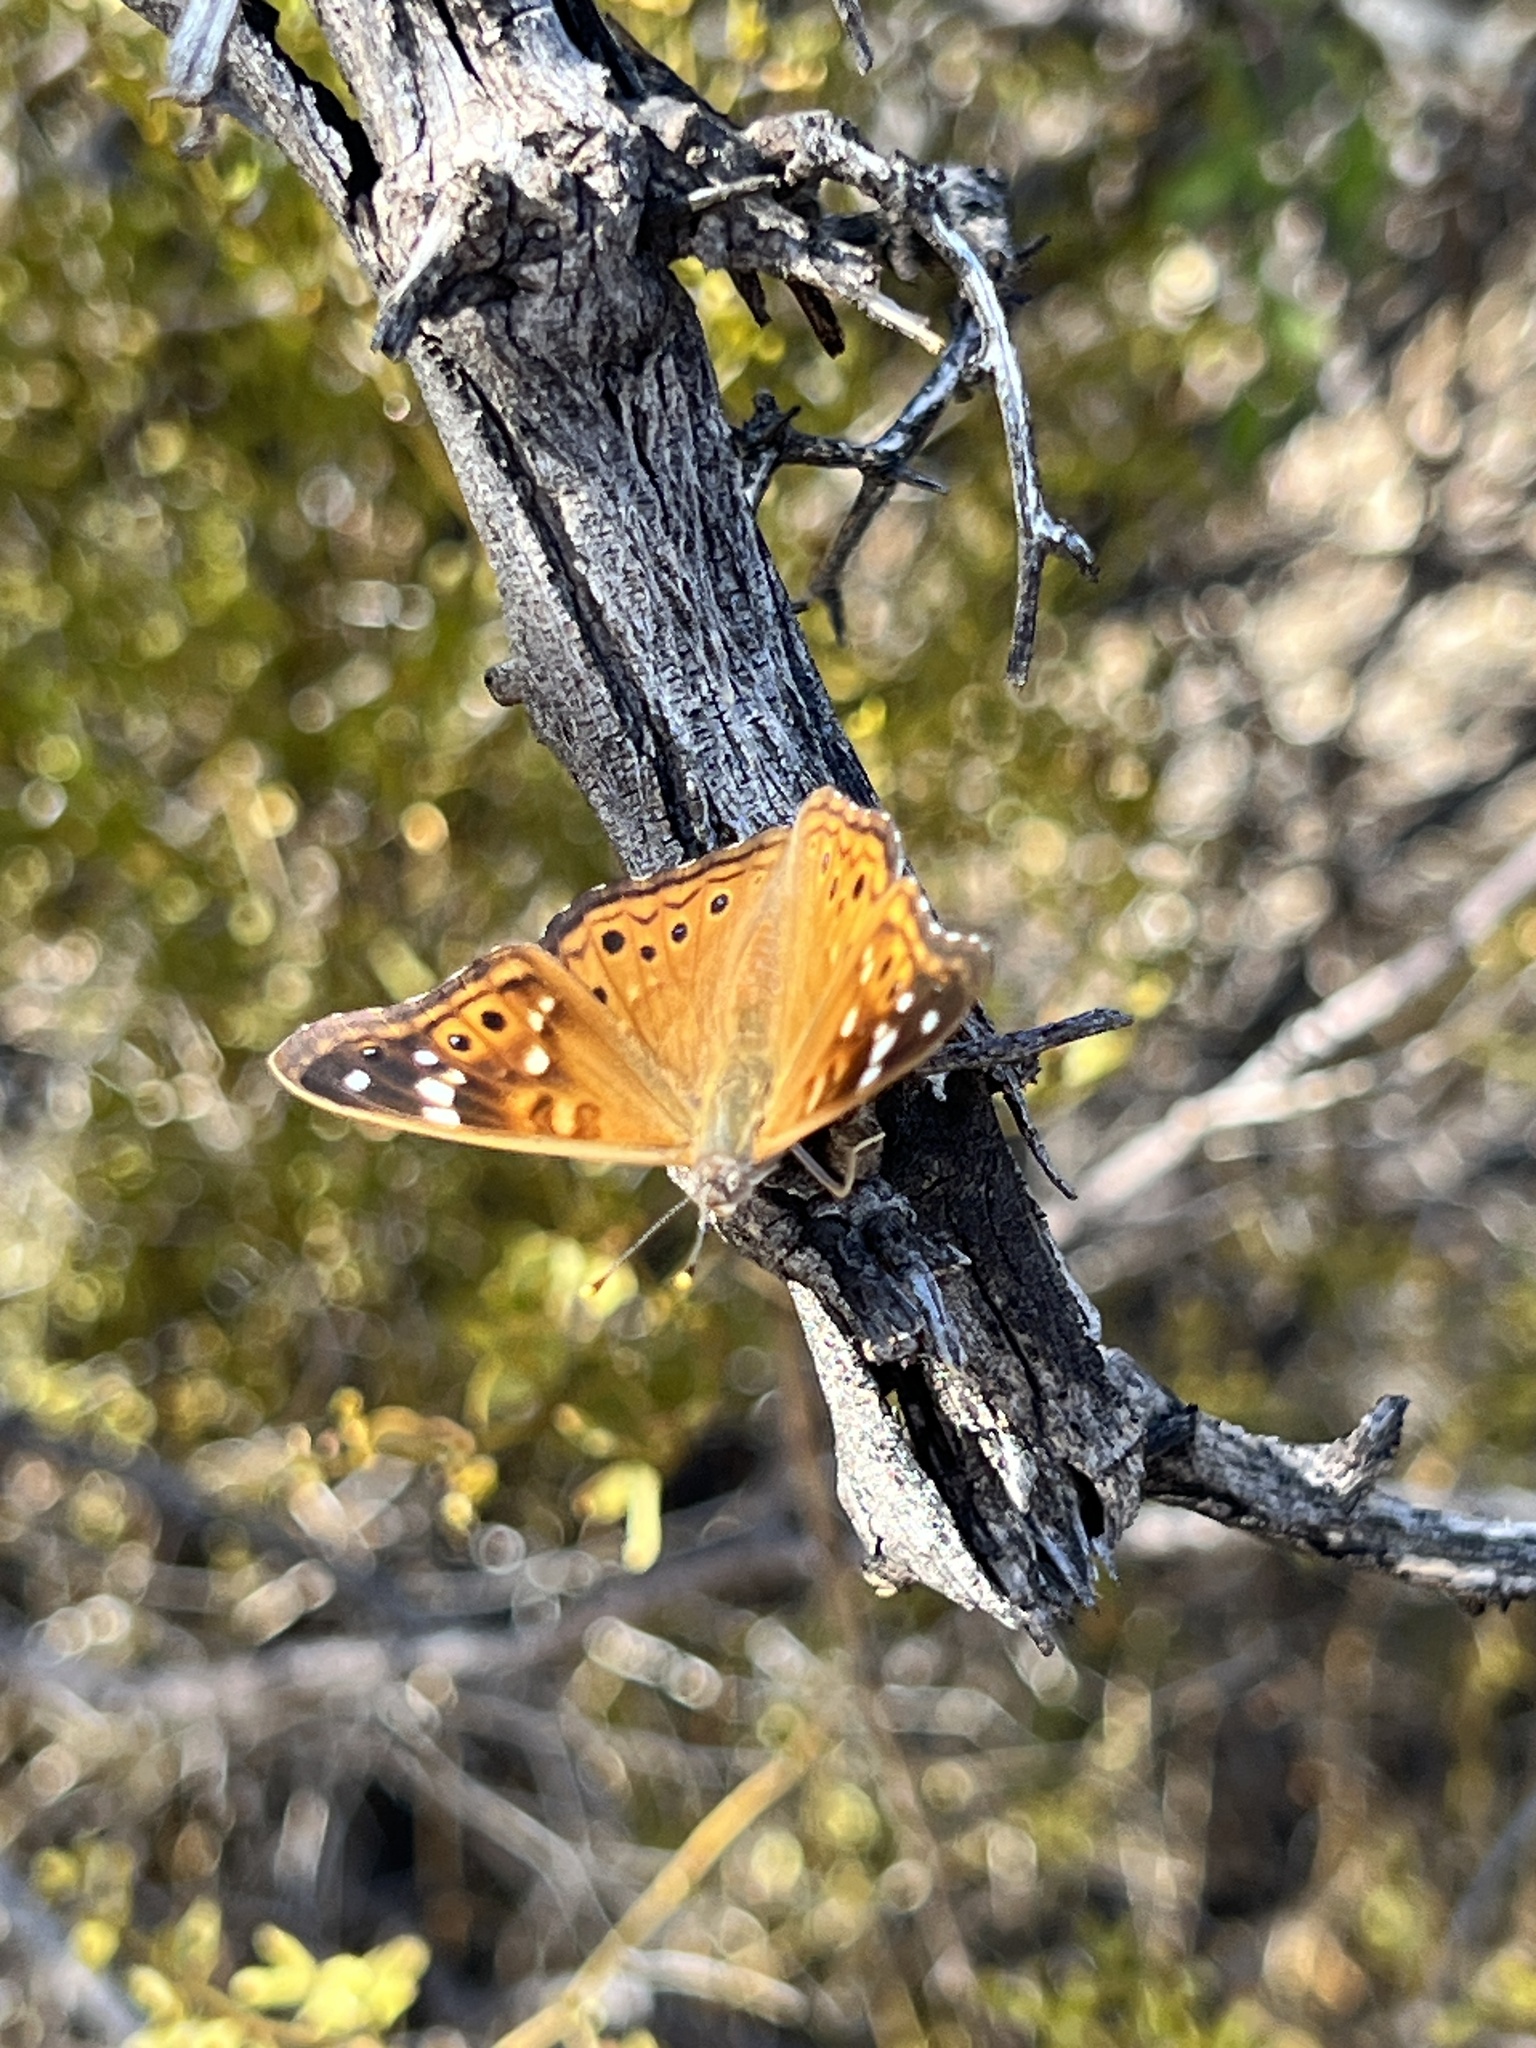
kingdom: Animalia
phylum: Arthropoda
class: Insecta
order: Lepidoptera
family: Nymphalidae
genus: Asterocampa
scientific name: Asterocampa leilia
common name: Empress leilia
